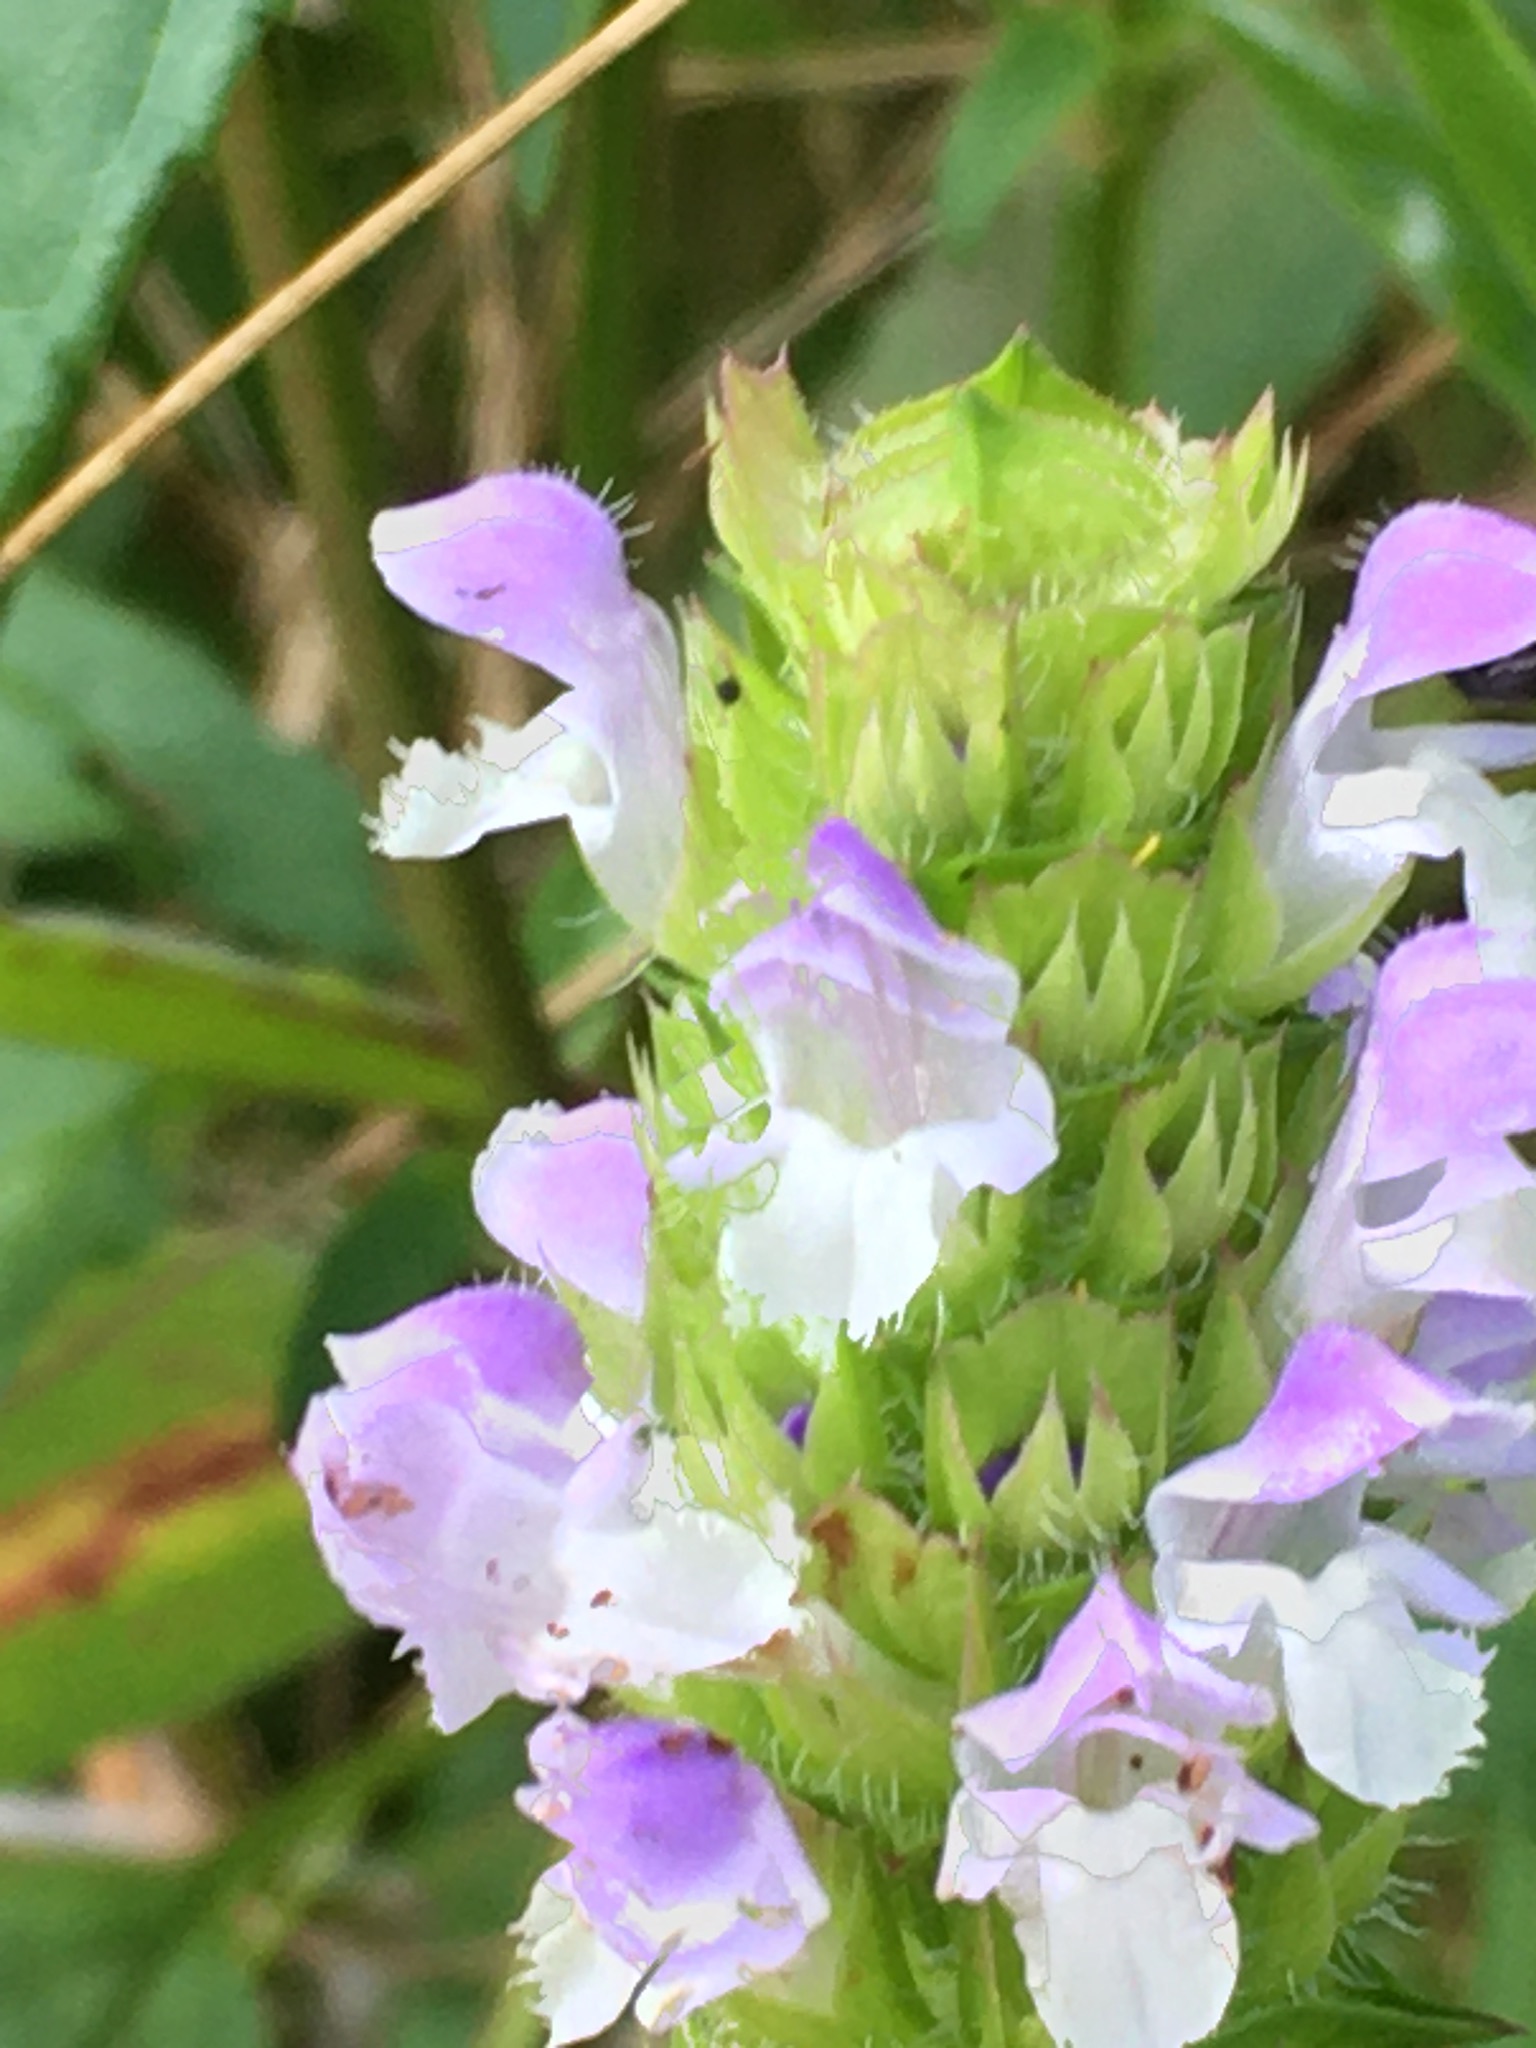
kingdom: Plantae
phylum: Tracheophyta
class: Magnoliopsida
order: Lamiales
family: Lamiaceae
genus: Prunella
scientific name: Prunella vulgaris
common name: Heal-all
